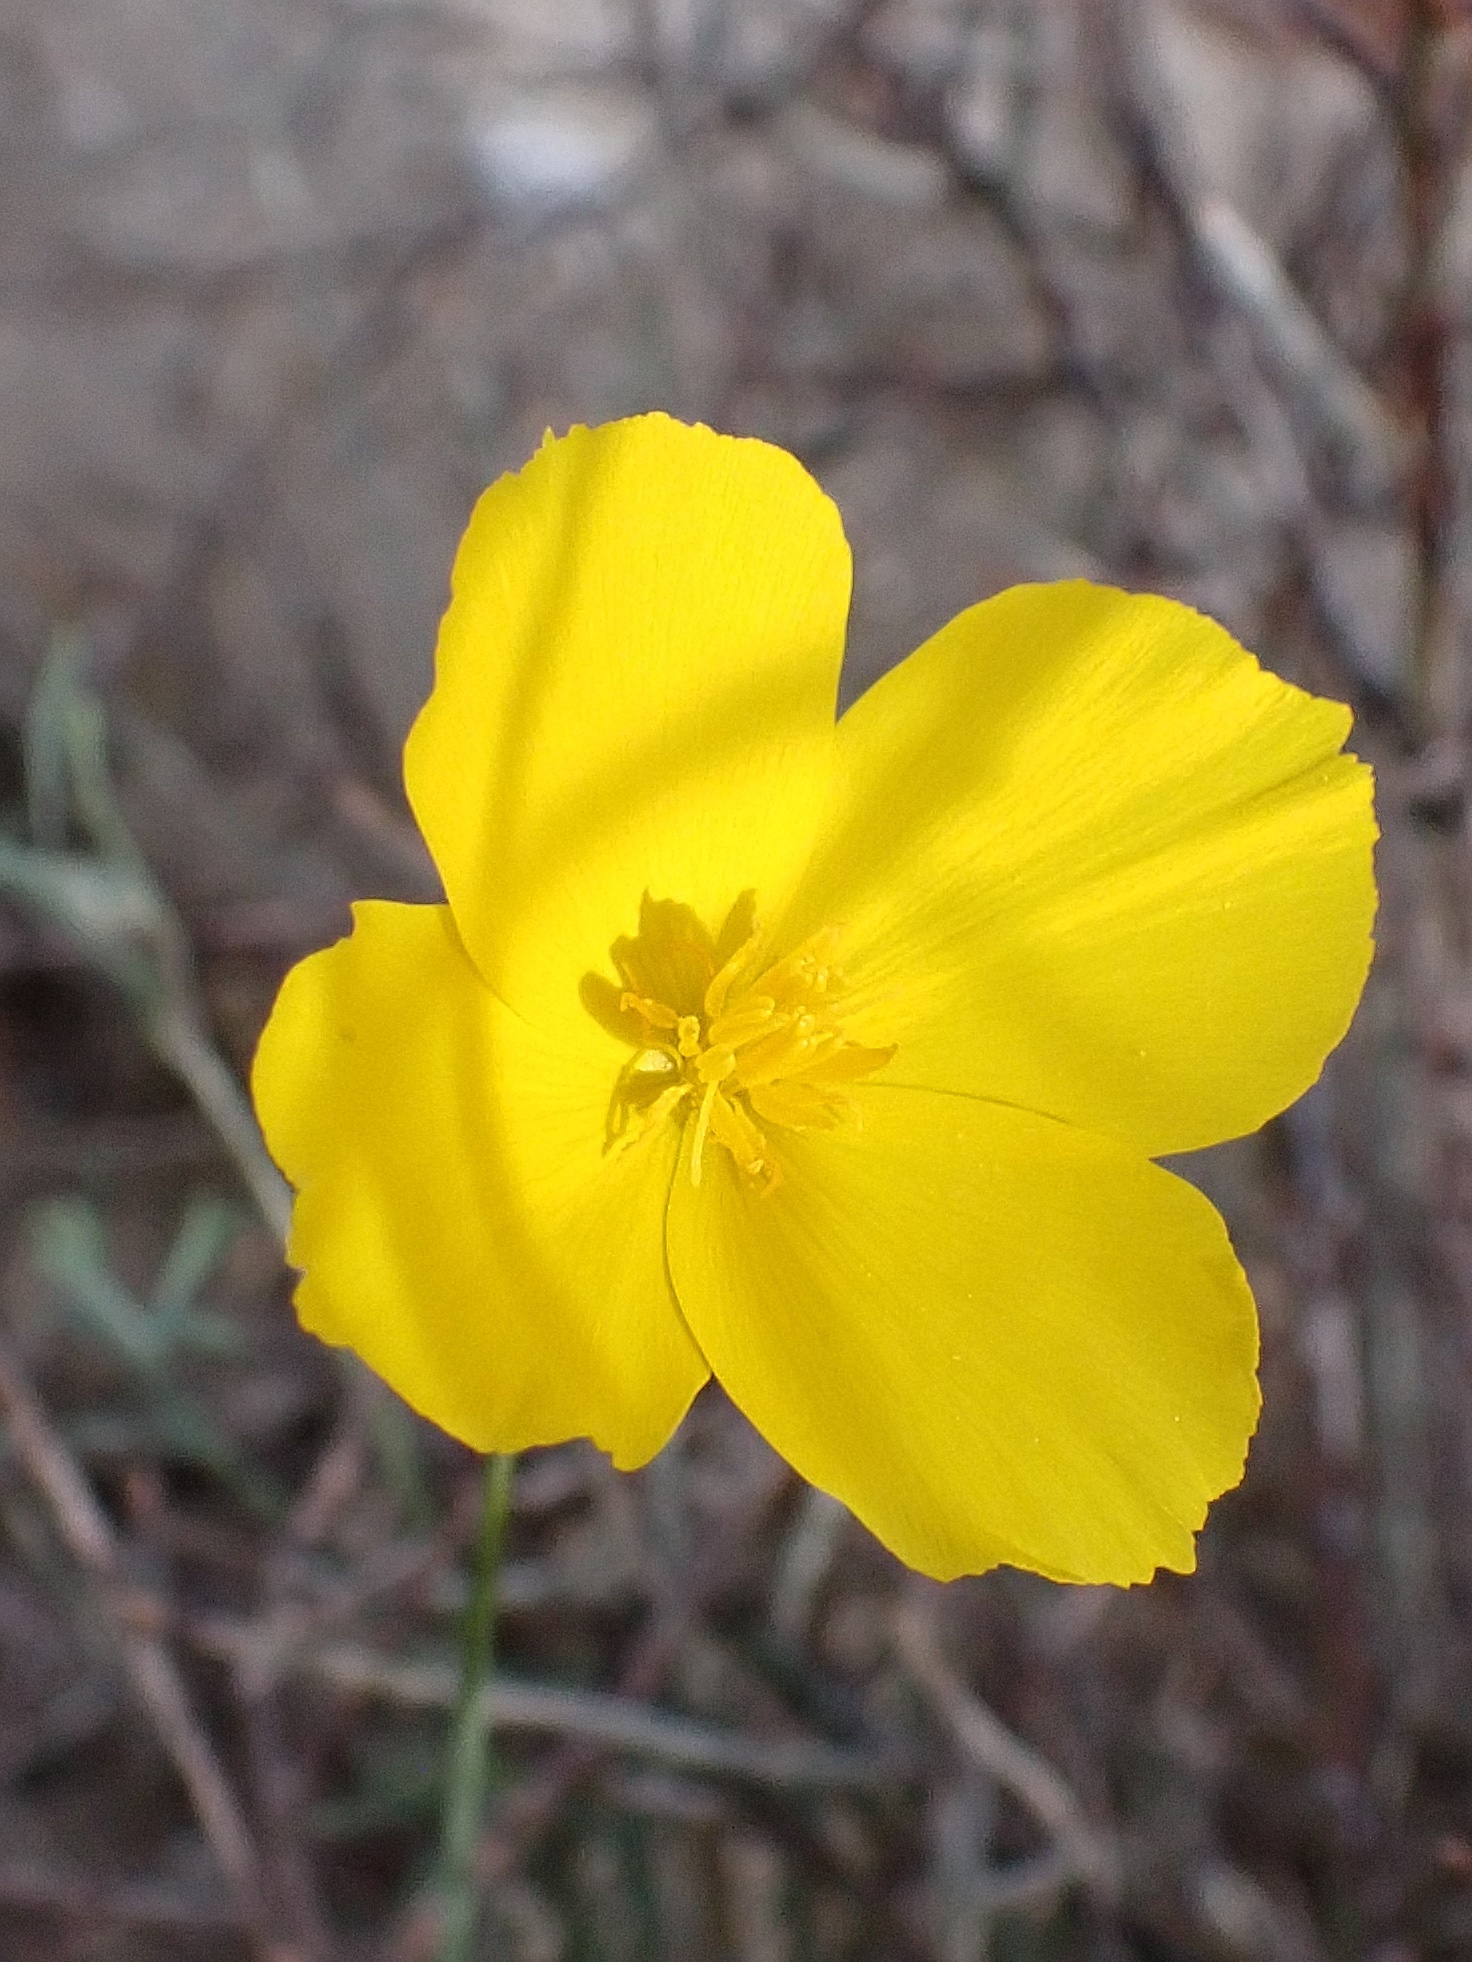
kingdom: Plantae
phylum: Tracheophyta
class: Magnoliopsida
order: Ranunculales
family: Papaveraceae
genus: Eschscholzia
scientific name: Eschscholzia parishii
